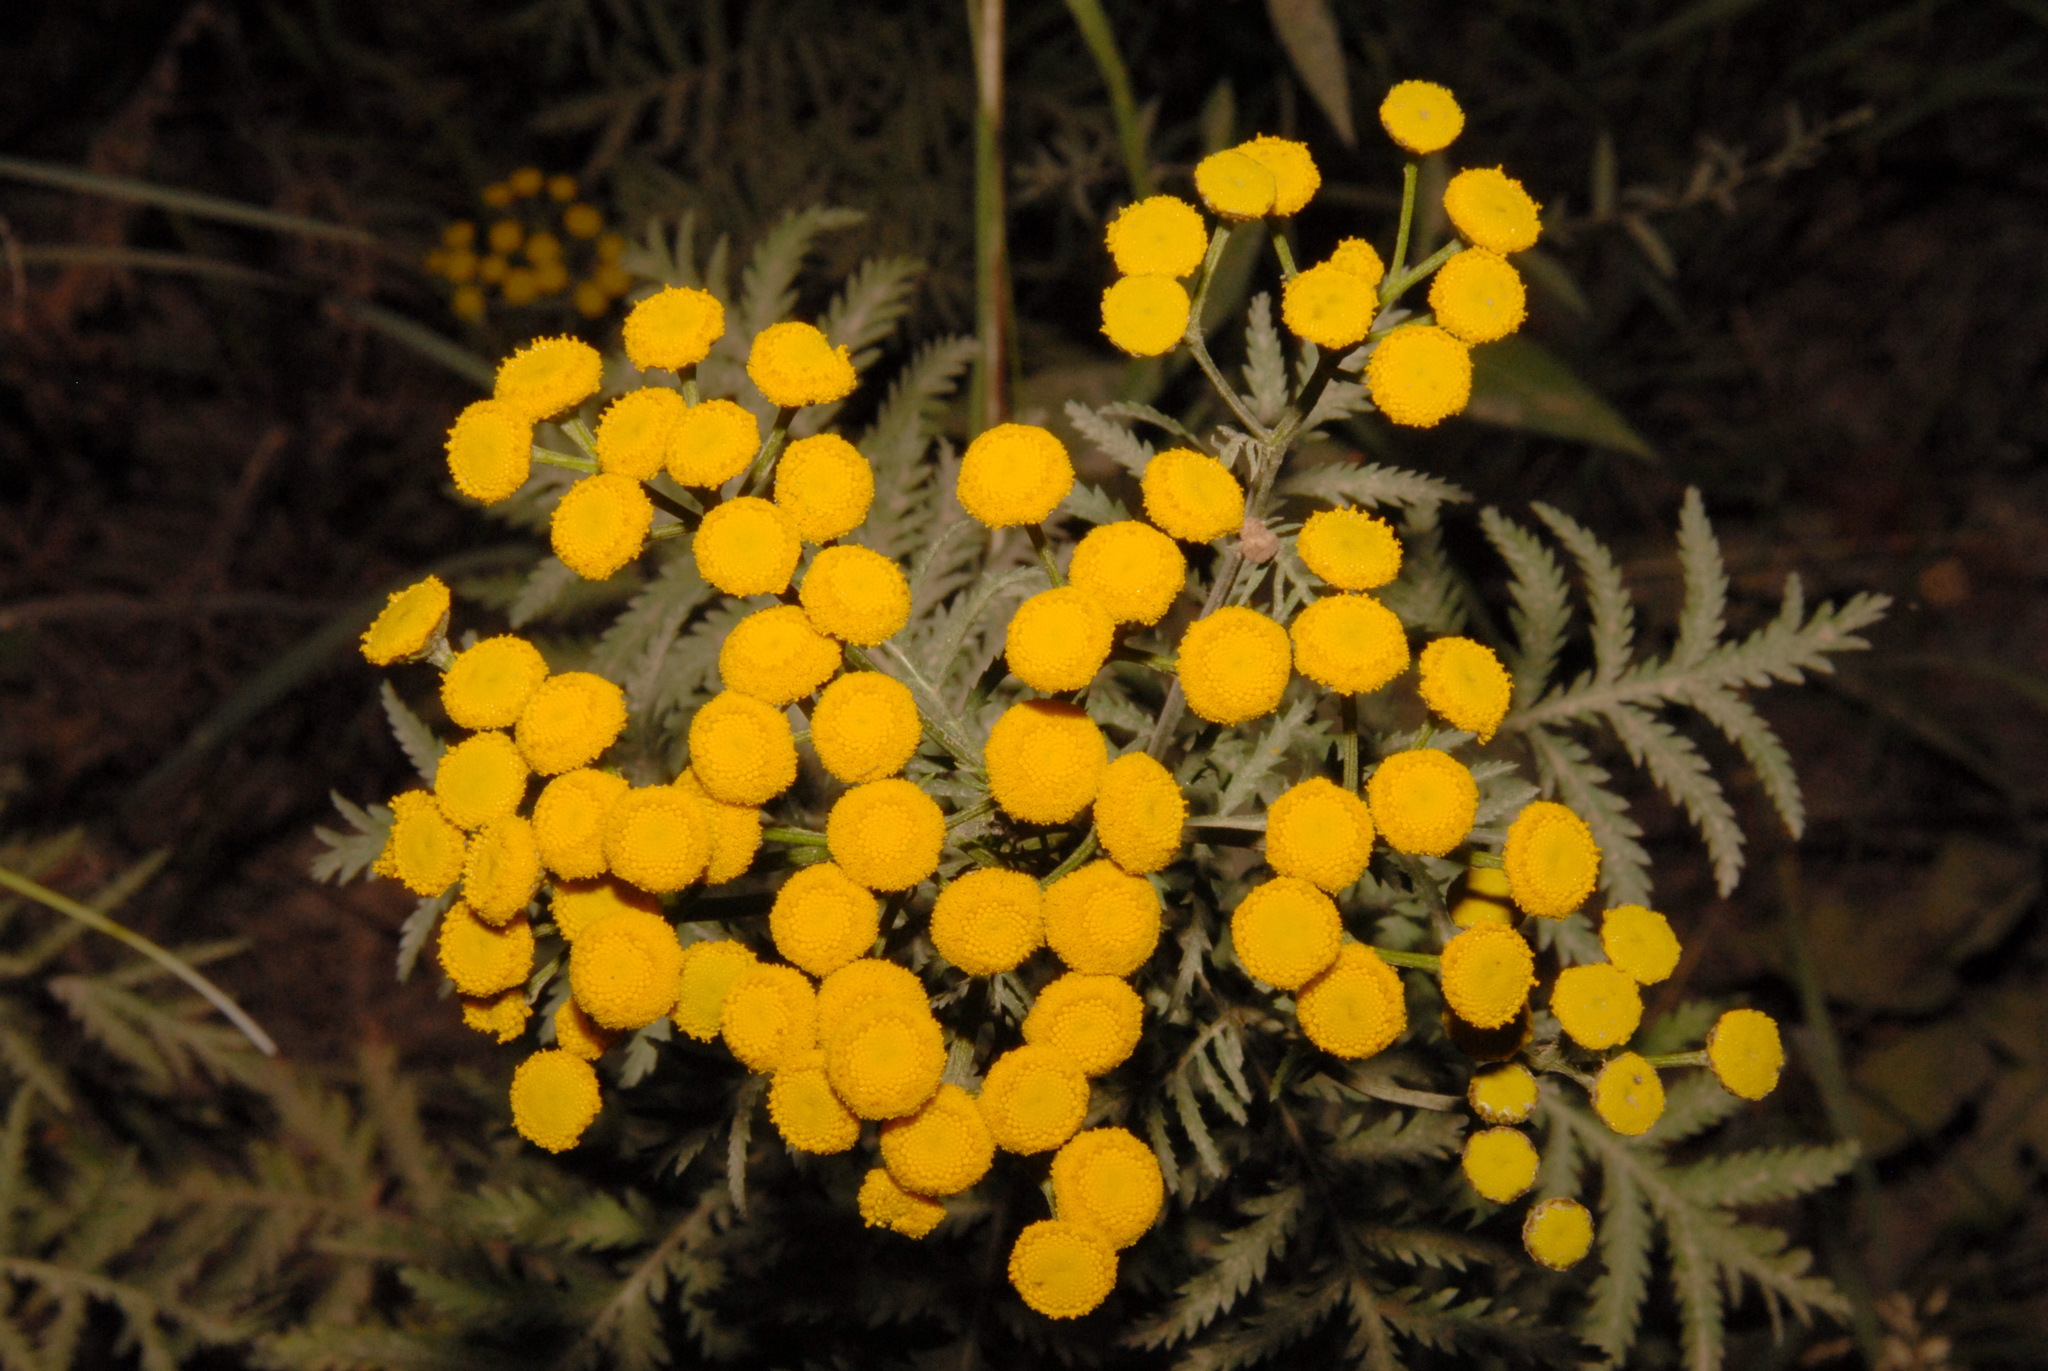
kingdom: Plantae
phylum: Tracheophyta
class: Magnoliopsida
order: Asterales
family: Asteraceae
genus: Tanacetum
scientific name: Tanacetum vulgare
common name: Common tansy
